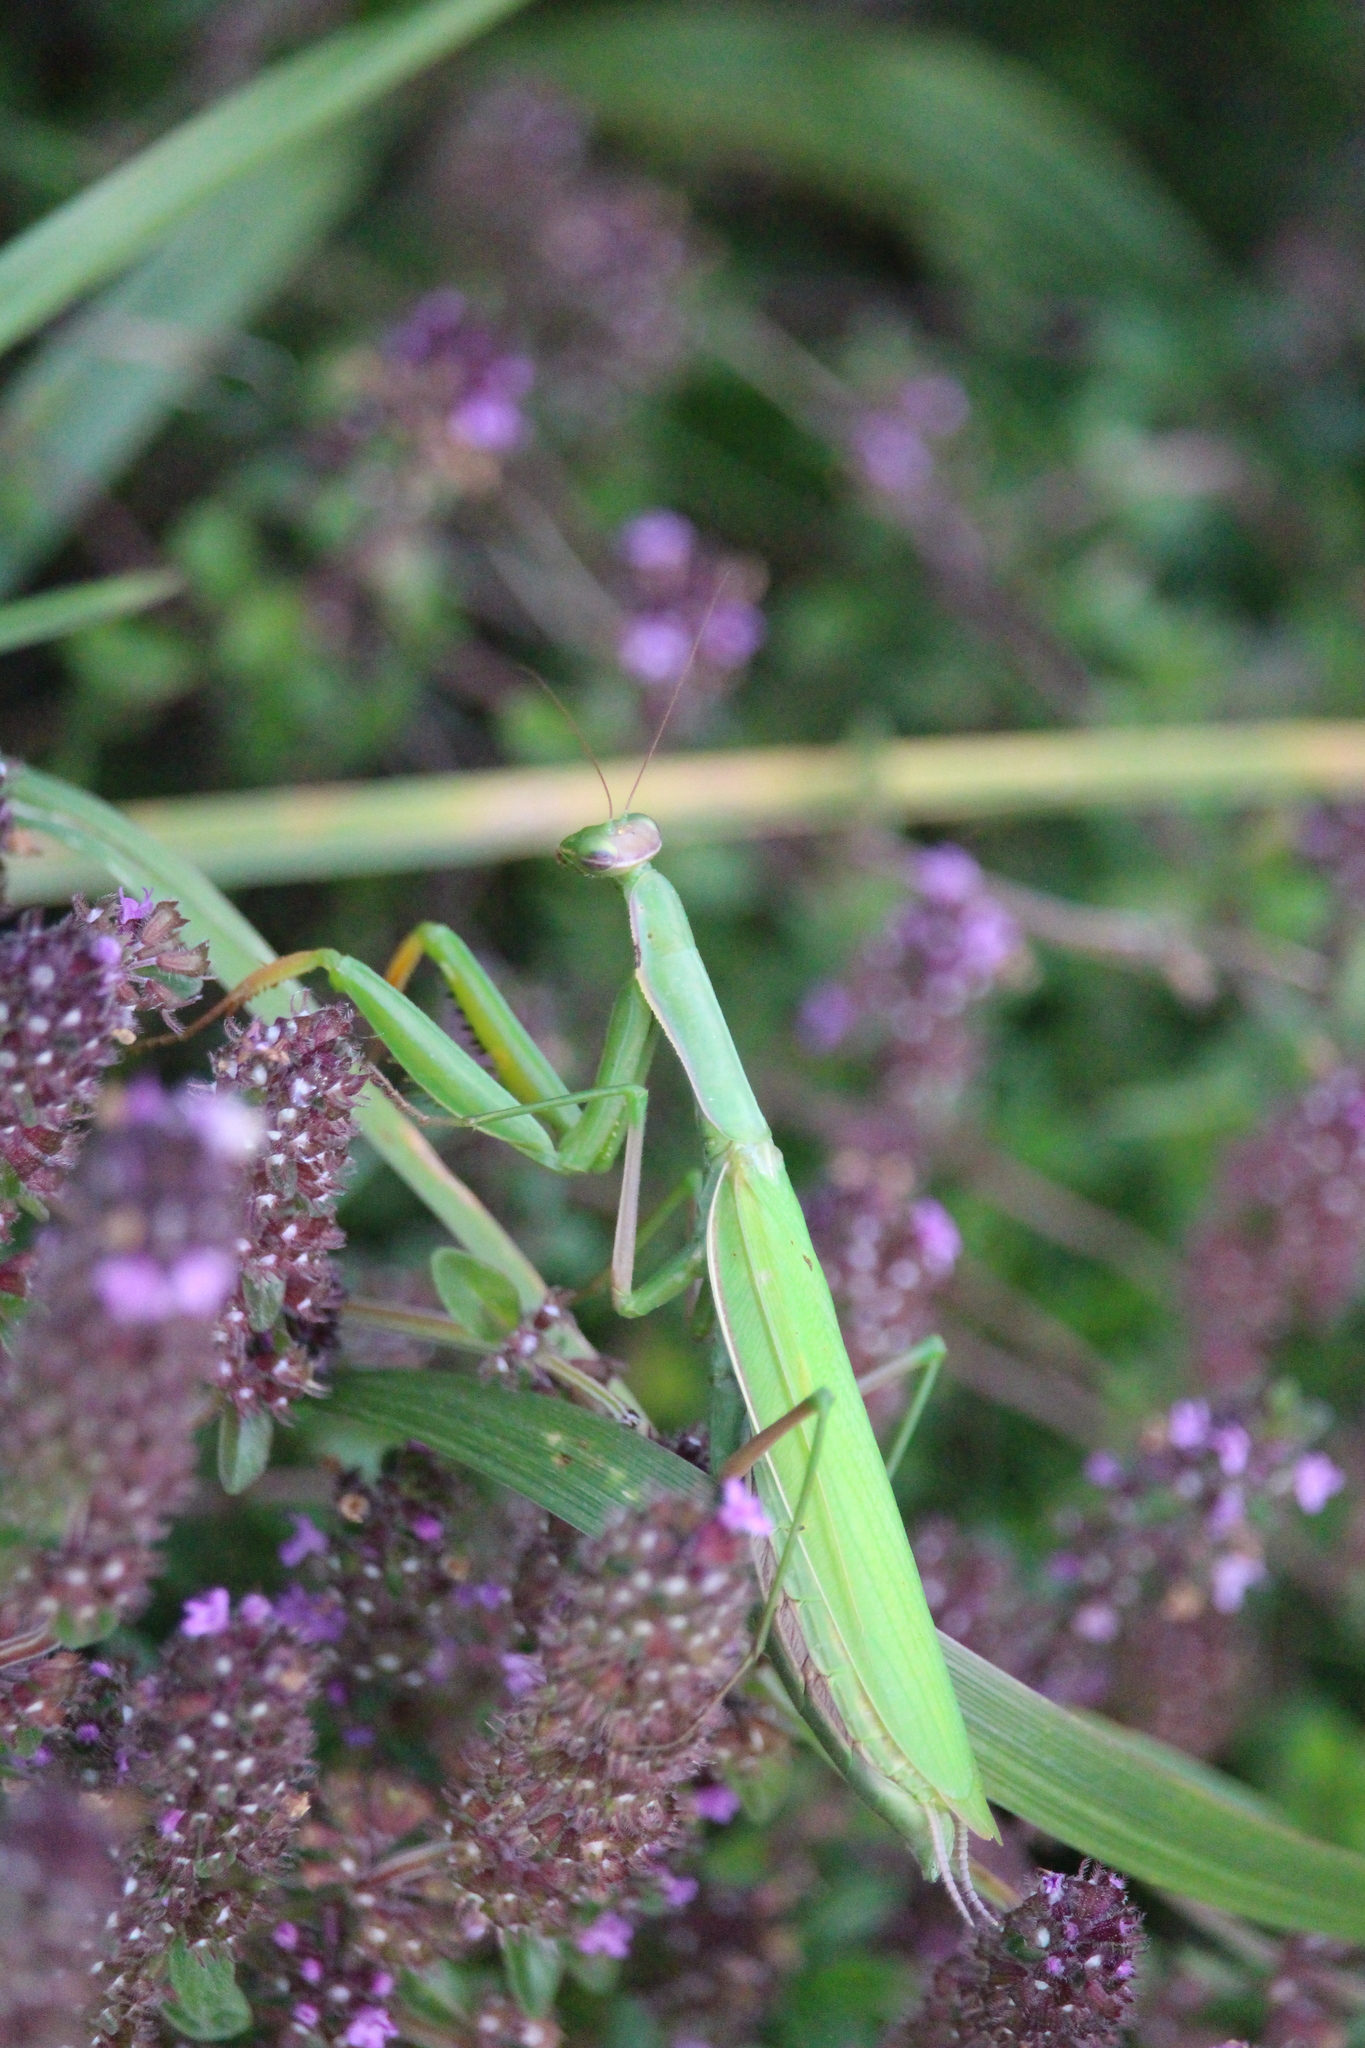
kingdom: Animalia
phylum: Arthropoda
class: Insecta
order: Mantodea
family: Mantidae
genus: Mantis
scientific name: Mantis religiosa
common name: Praying mantis
